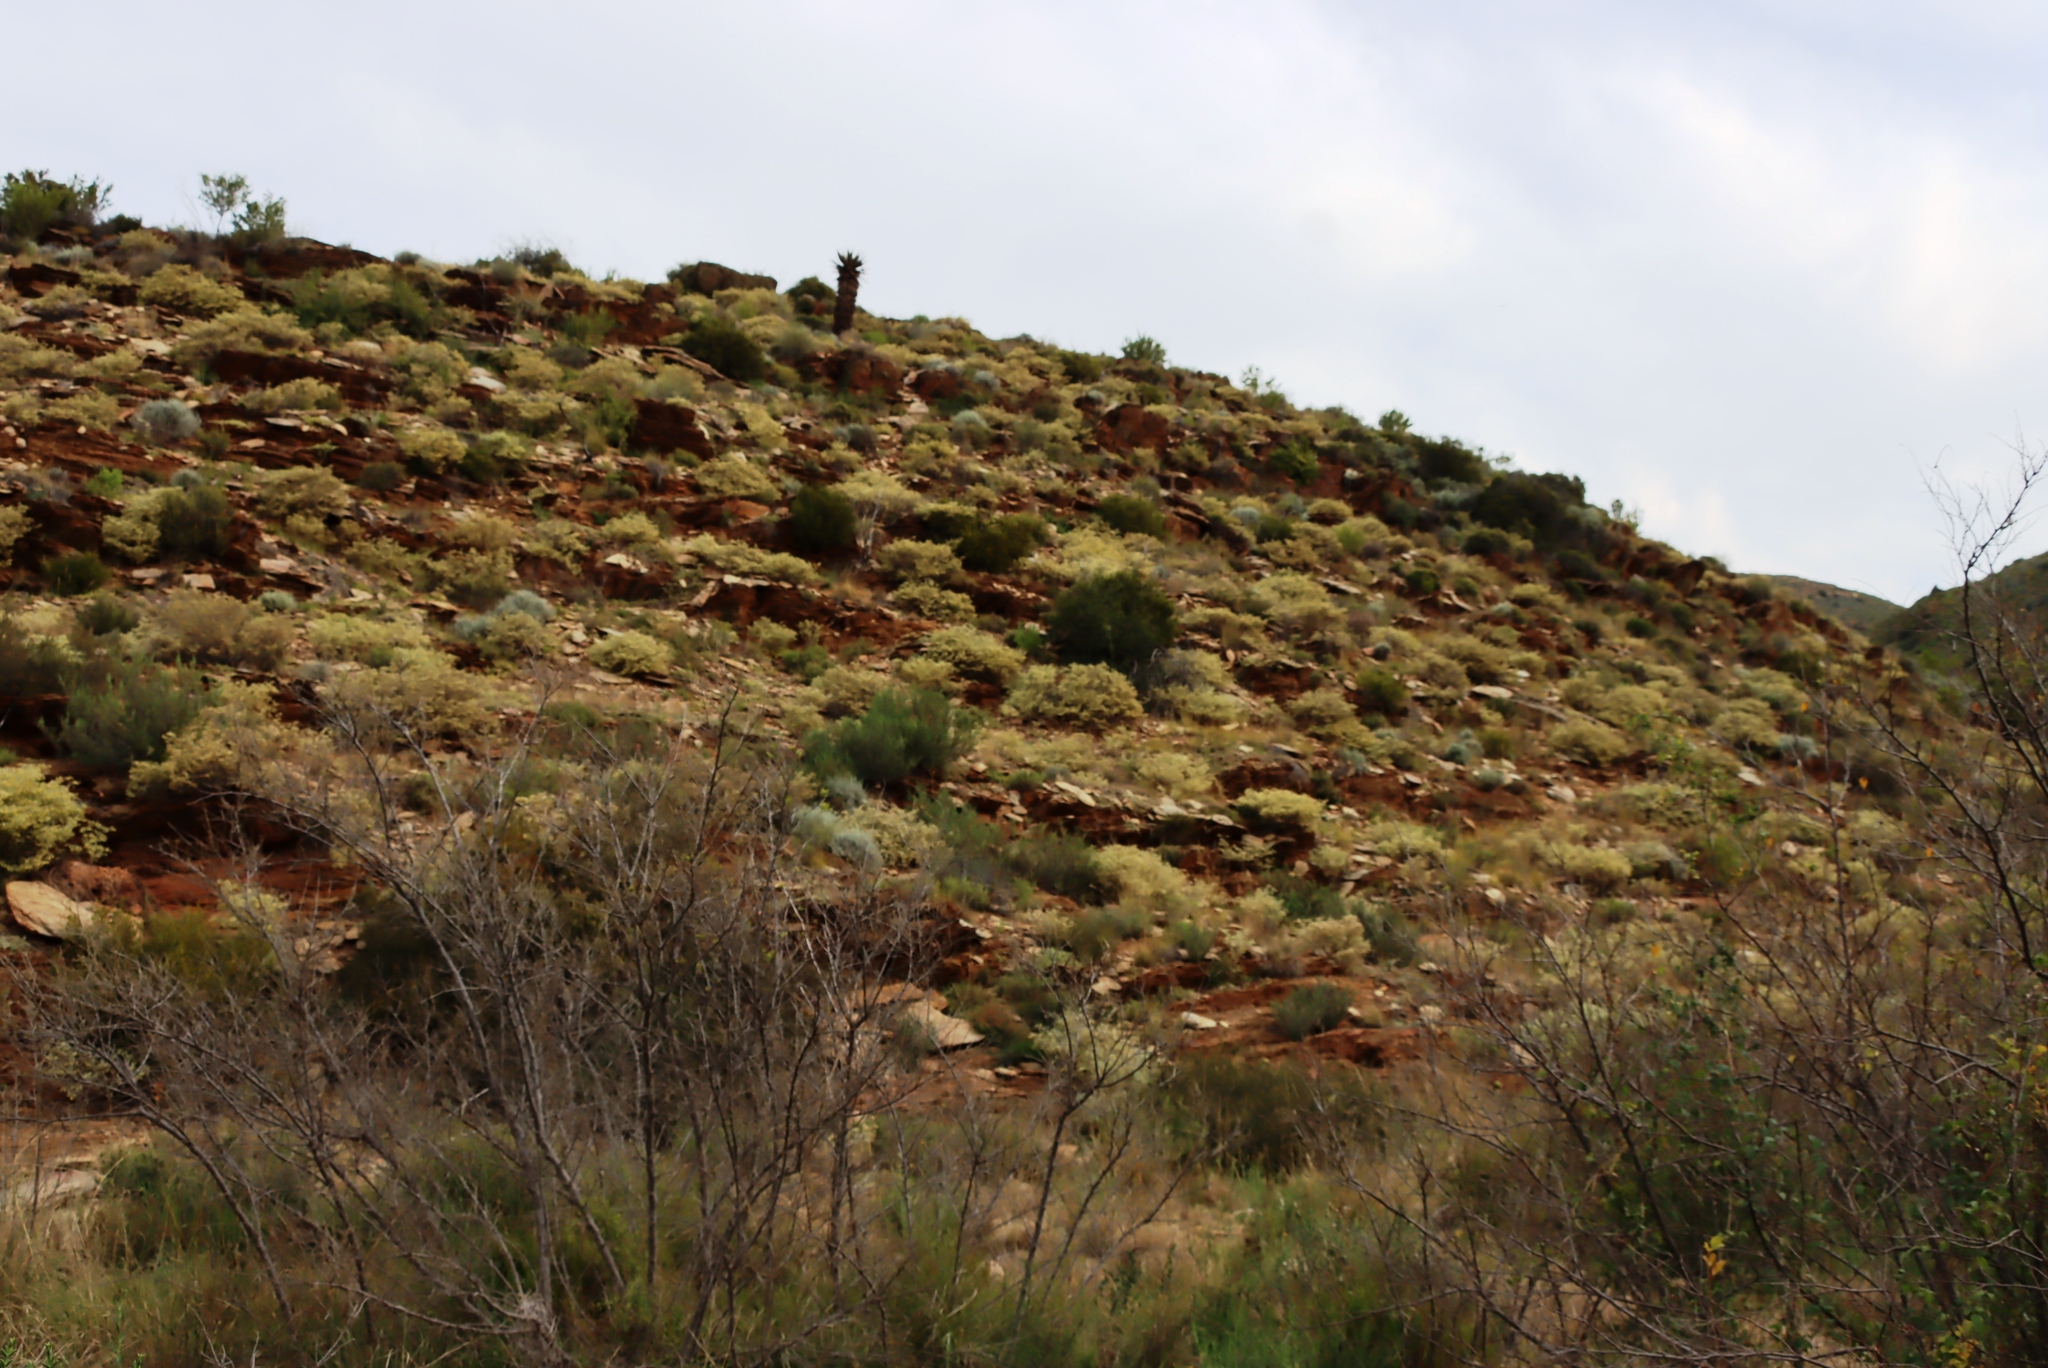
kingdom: Plantae
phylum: Tracheophyta
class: Liliopsida
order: Asparagales
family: Asphodelaceae
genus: Aloe
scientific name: Aloe ferox
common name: Bitter aloe
